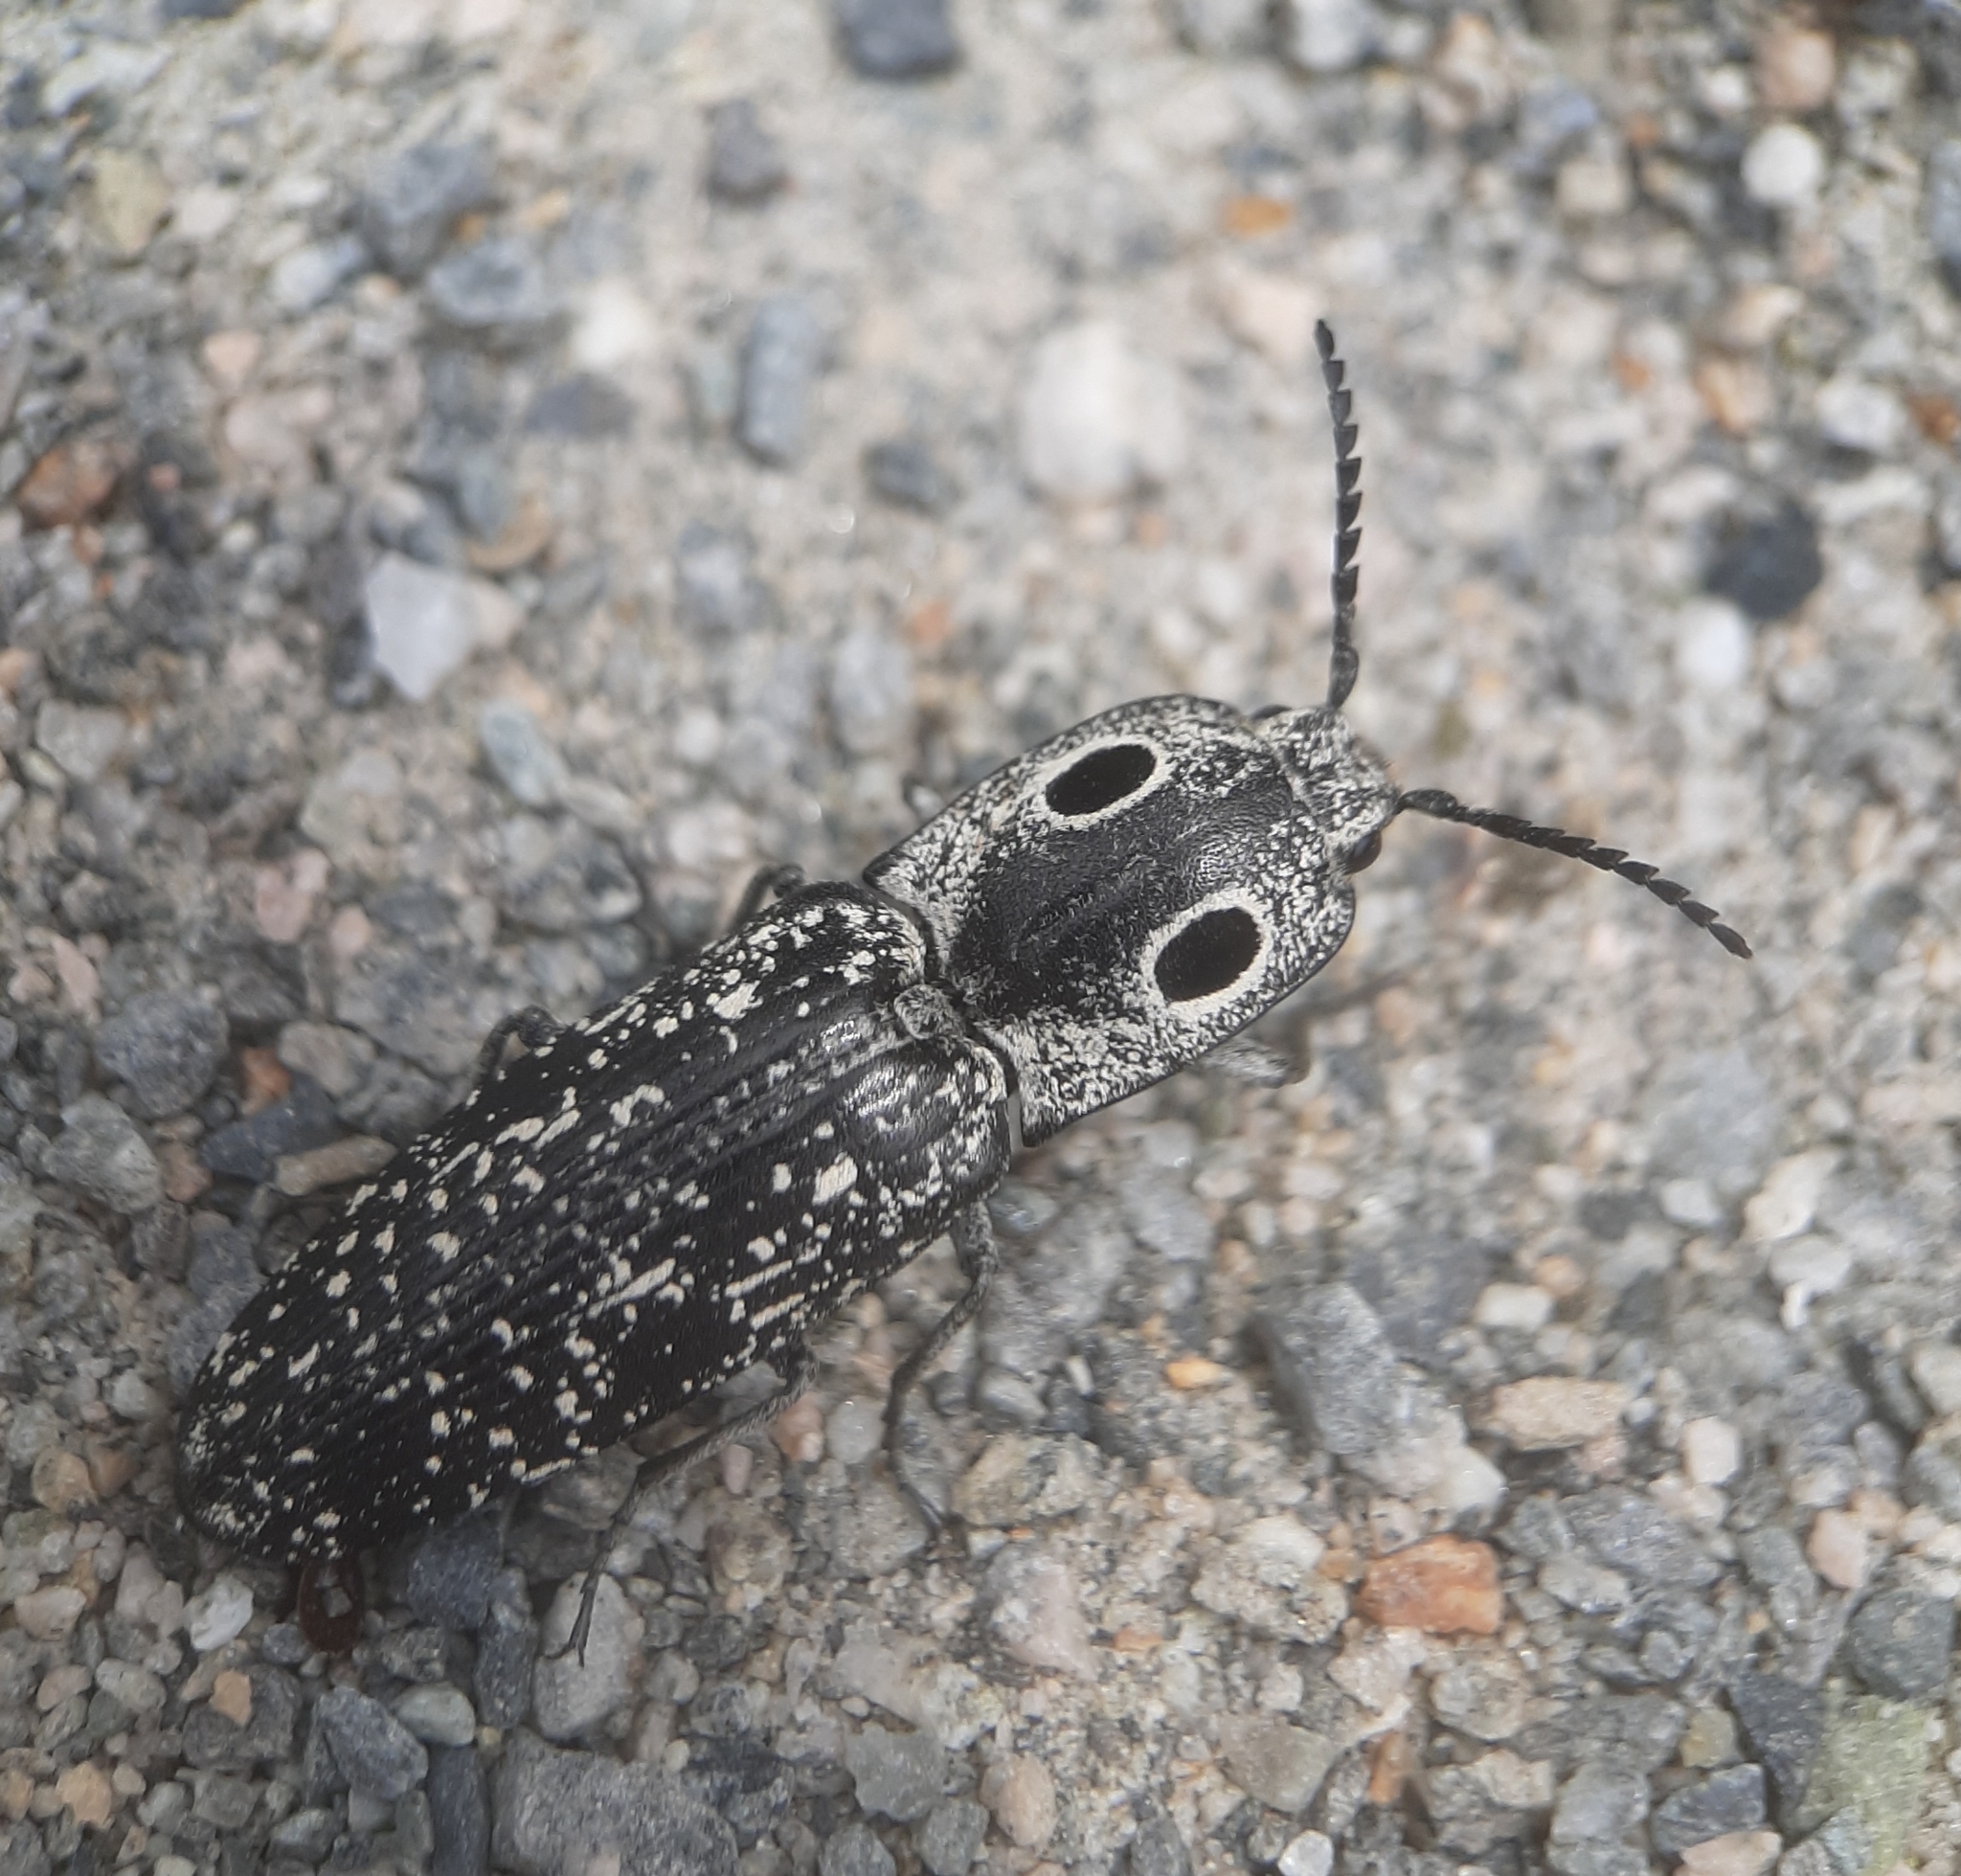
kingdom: Animalia
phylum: Arthropoda
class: Insecta
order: Coleoptera
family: Elateridae
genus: Alaus
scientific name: Alaus oculatus
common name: Eastern eyed click beetle
